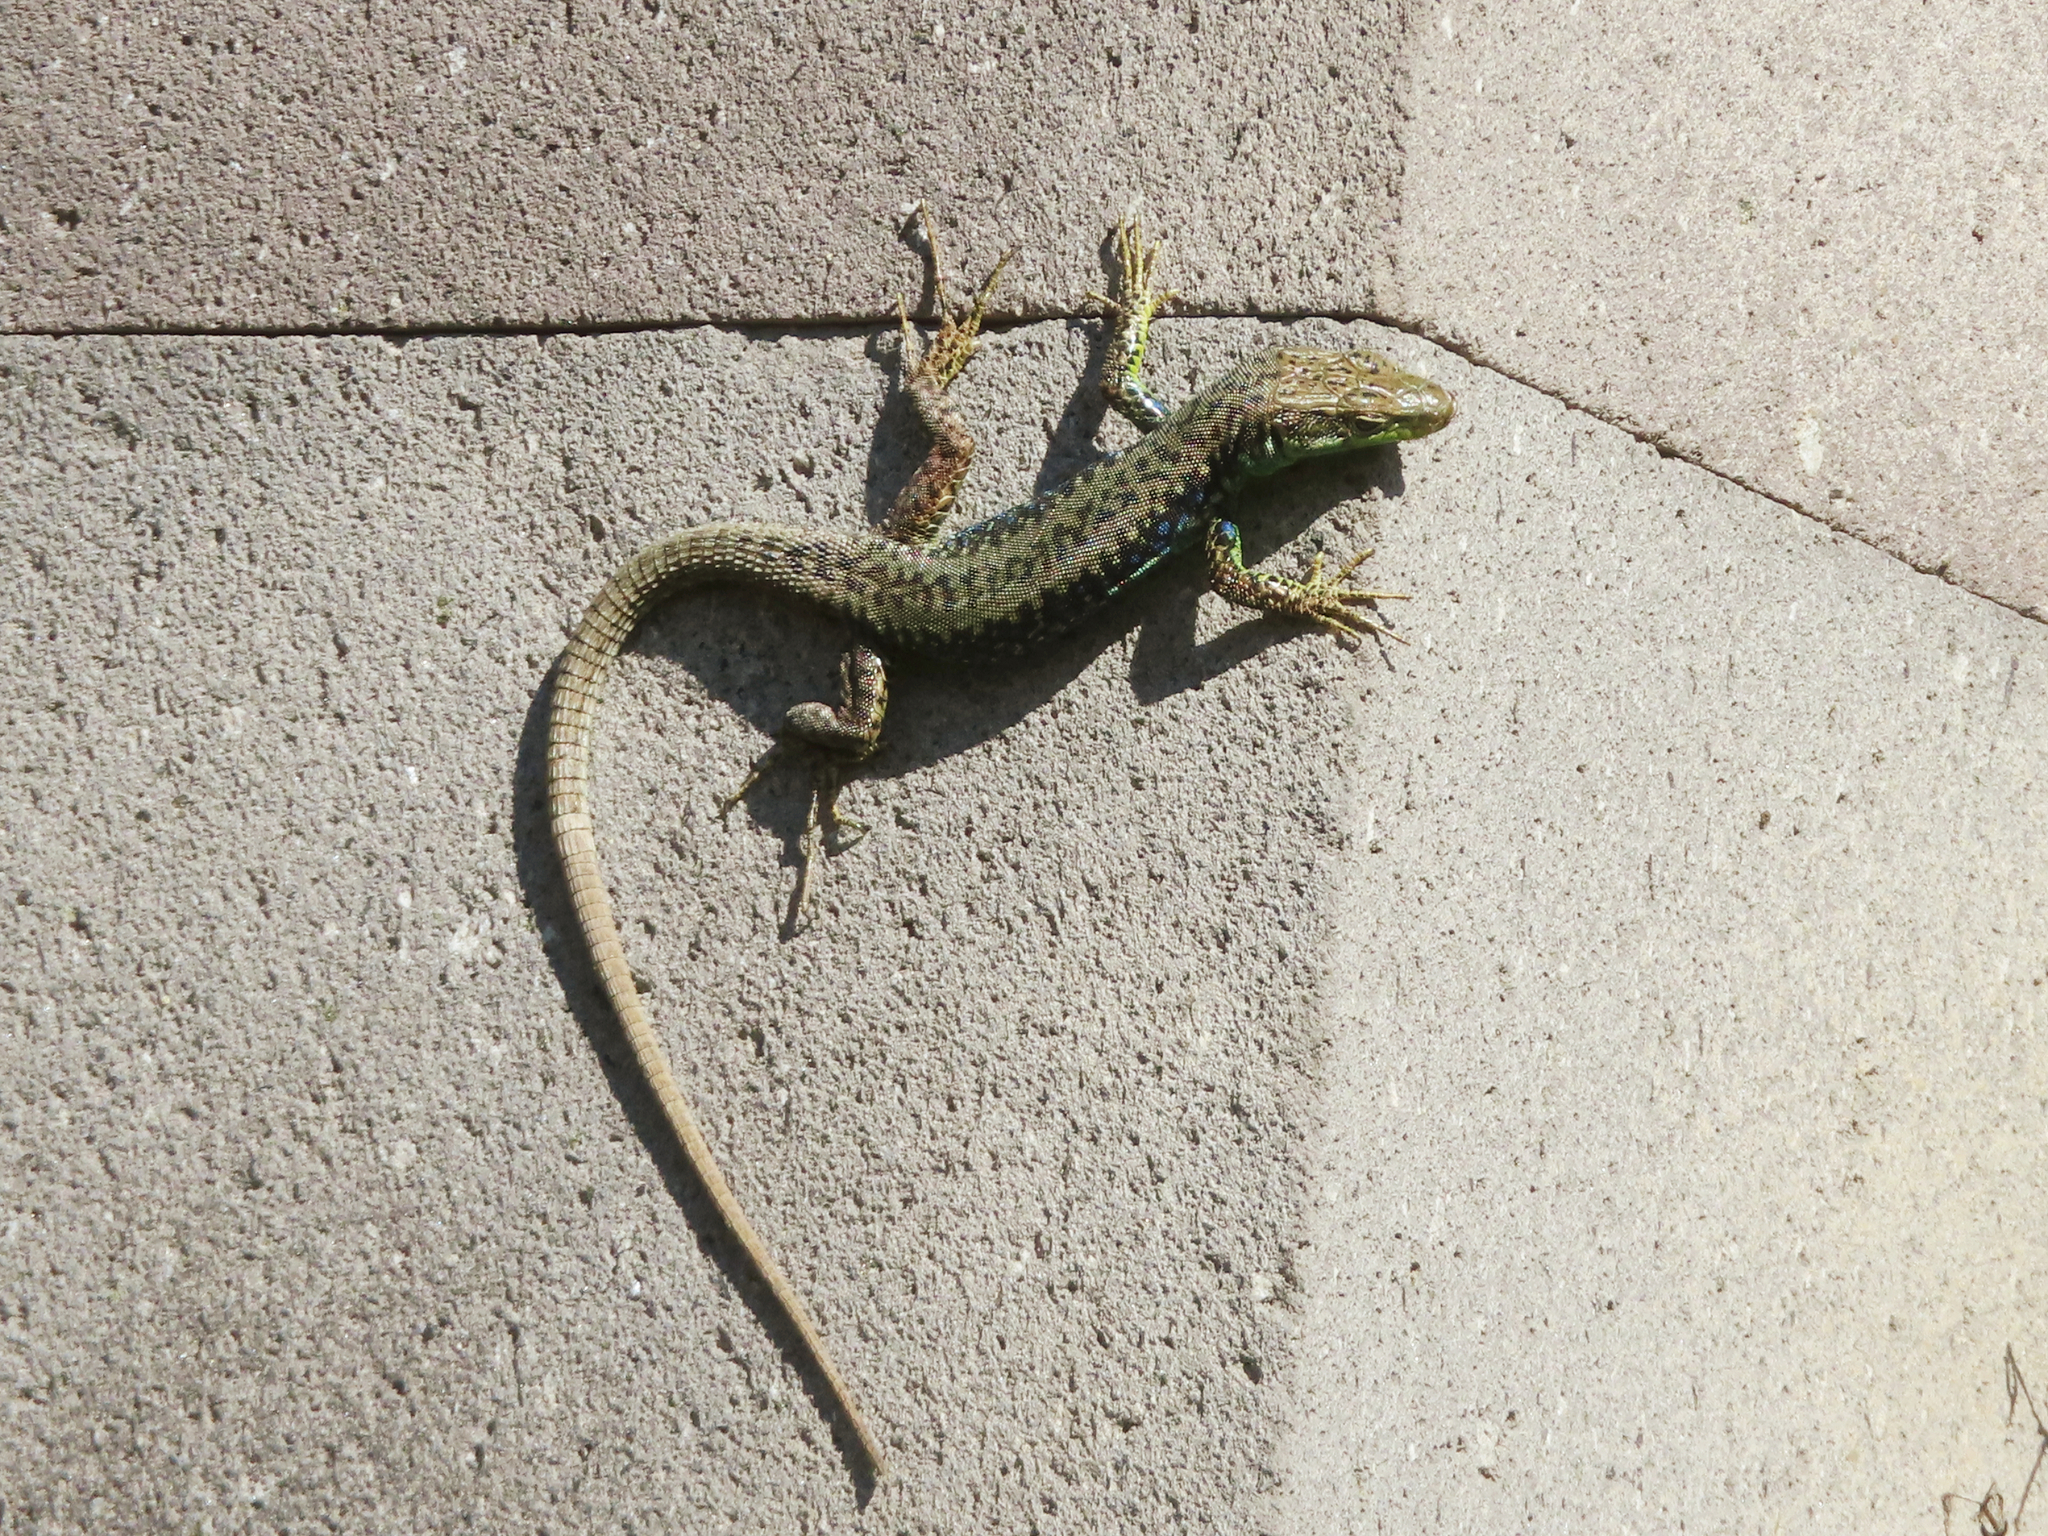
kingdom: Animalia
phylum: Chordata
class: Squamata
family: Lacertidae
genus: Darevskia
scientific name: Darevskia raddei
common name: Radde's lizard
